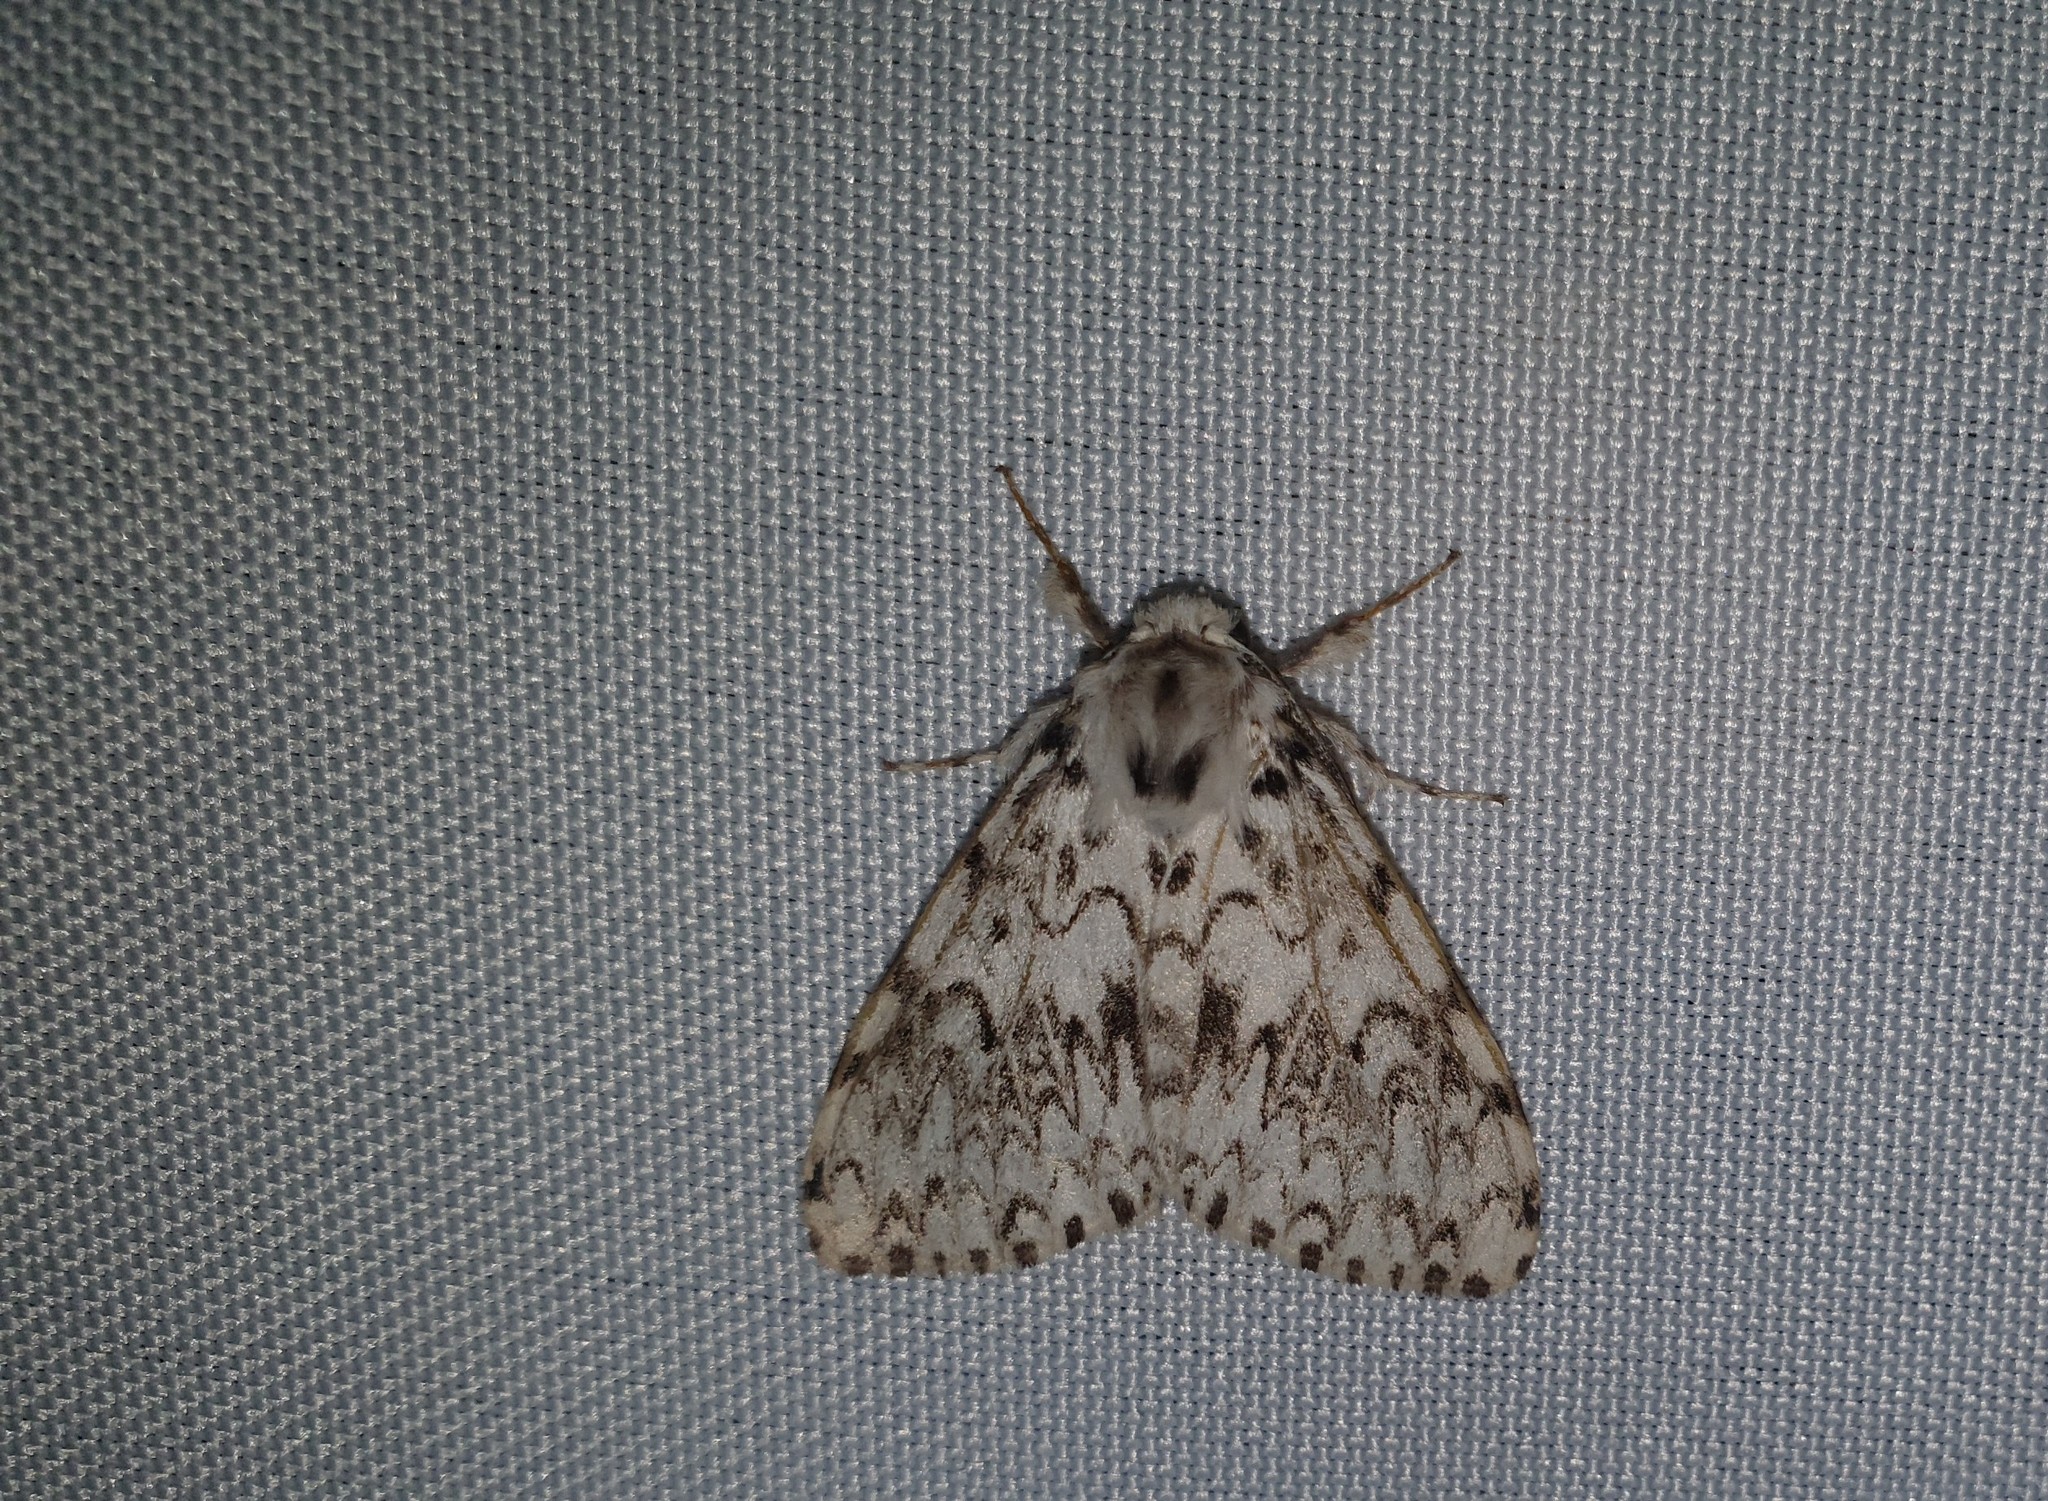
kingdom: Animalia
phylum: Arthropoda
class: Insecta
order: Lepidoptera
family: Erebidae
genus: Lymantria
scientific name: Lymantria monacha
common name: Black arches
